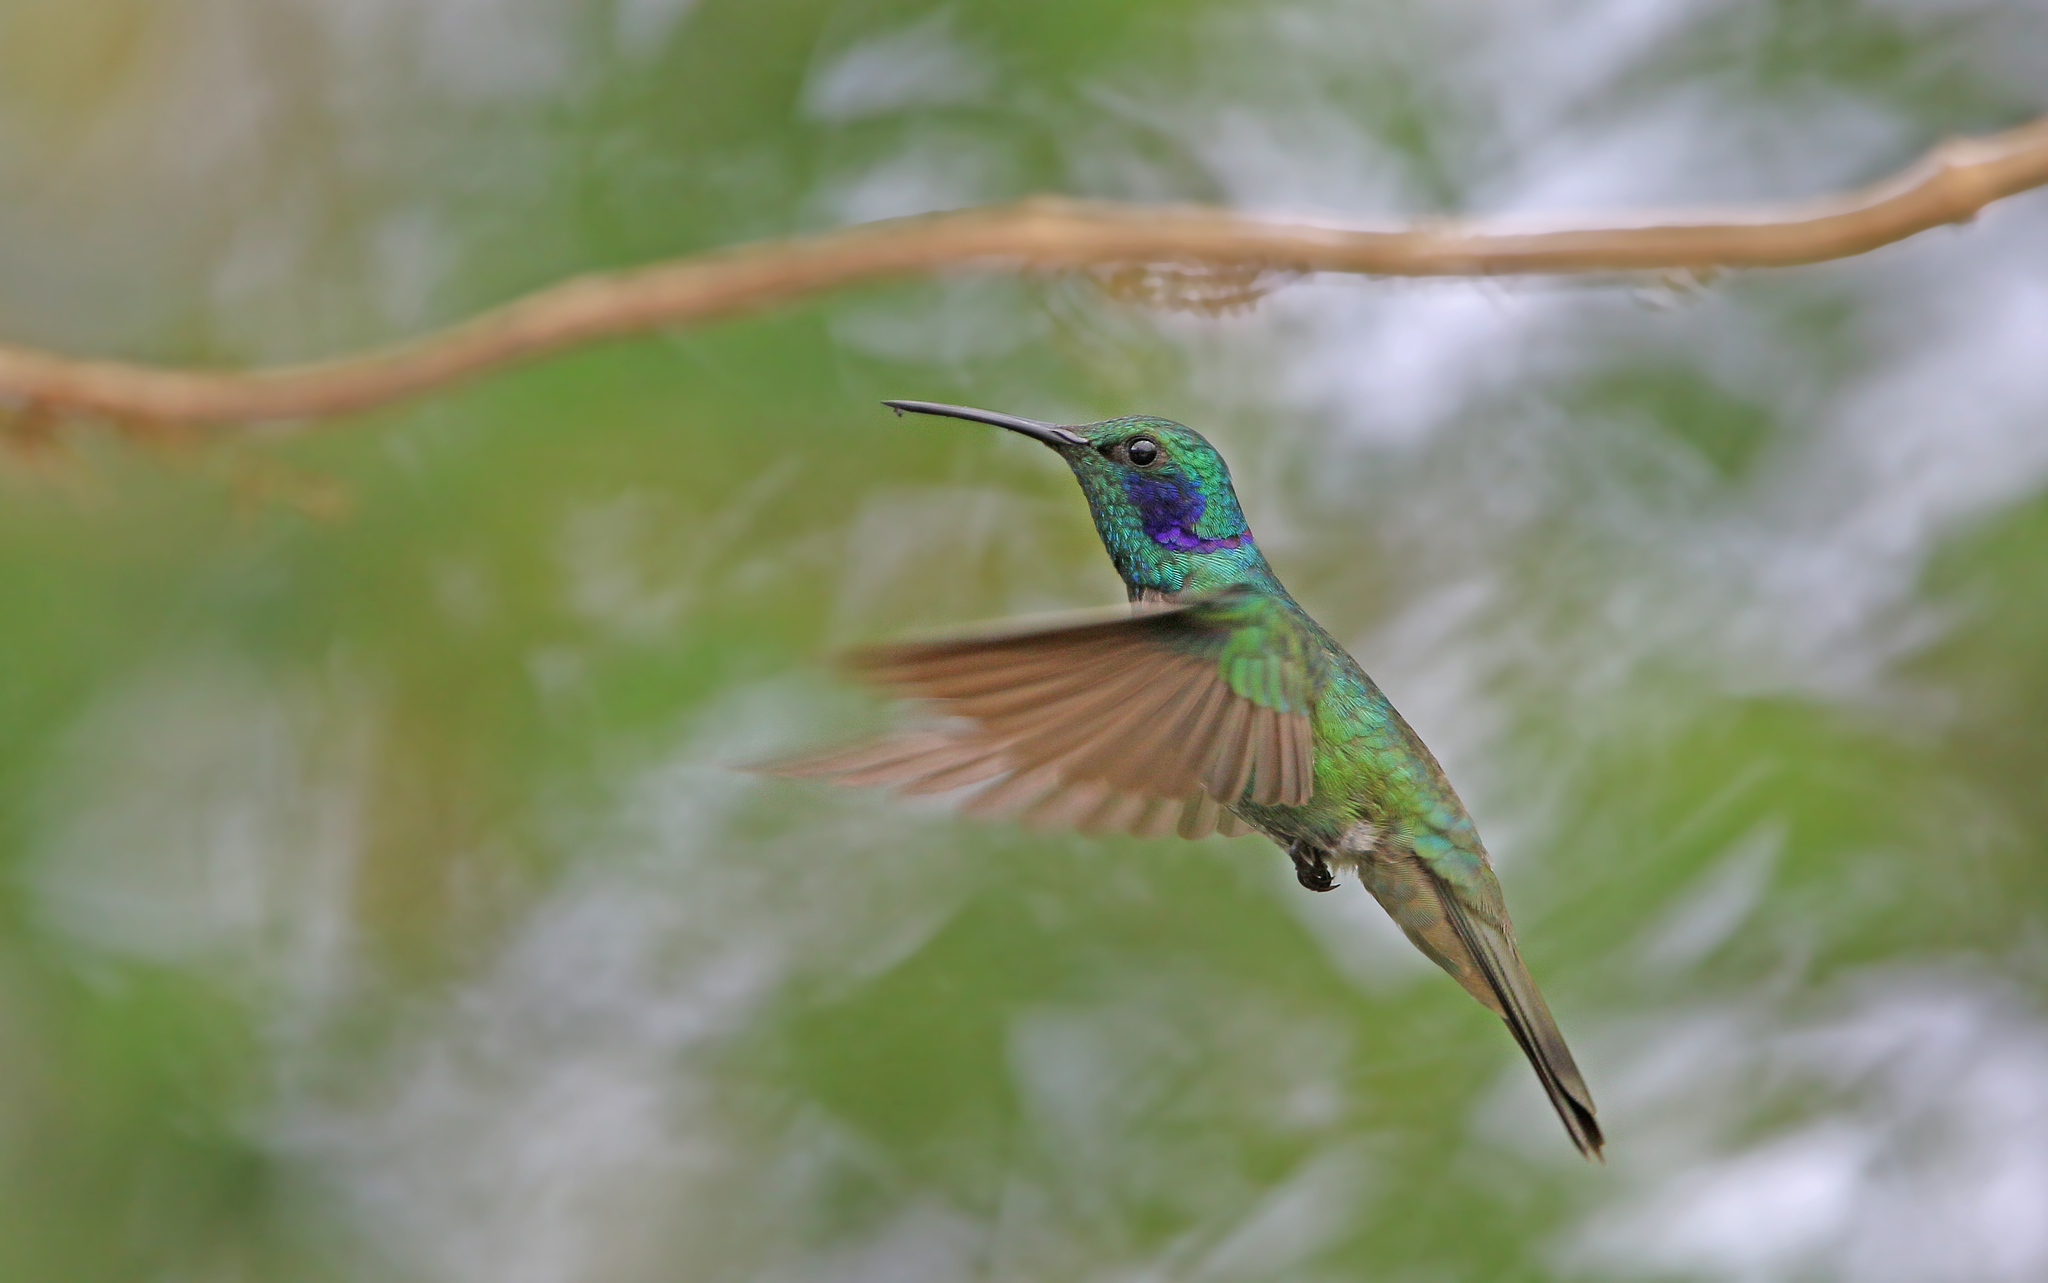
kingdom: Animalia
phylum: Chordata
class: Aves
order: Apodiformes
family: Trochilidae
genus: Colibri
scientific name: Colibri cyanotus
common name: Lesser violetear
